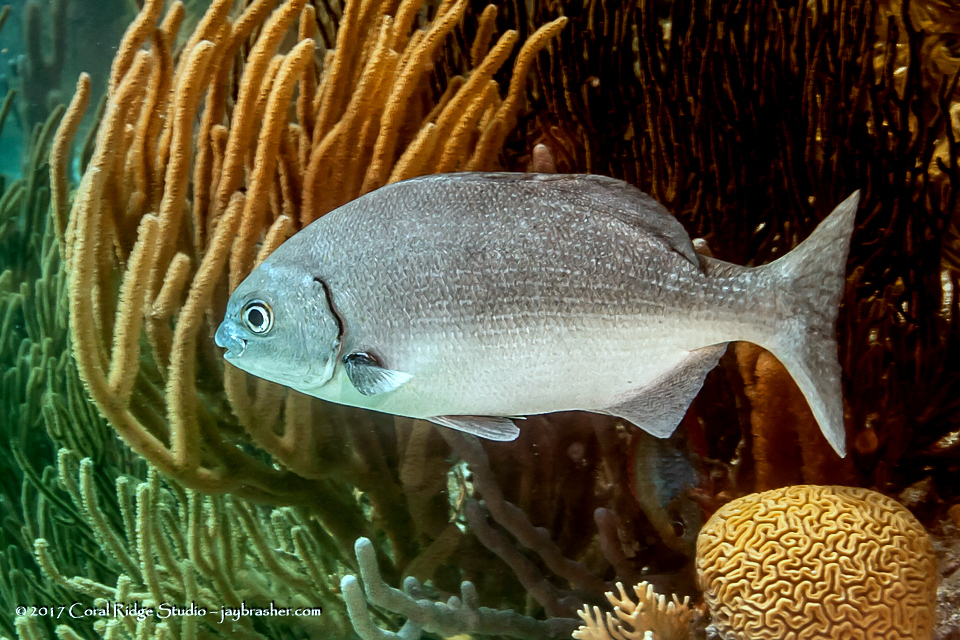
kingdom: Animalia
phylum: Chordata
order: Perciformes
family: Kyphosidae
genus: Kyphosus
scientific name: Kyphosus sectatrix
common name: Bermuda chub
